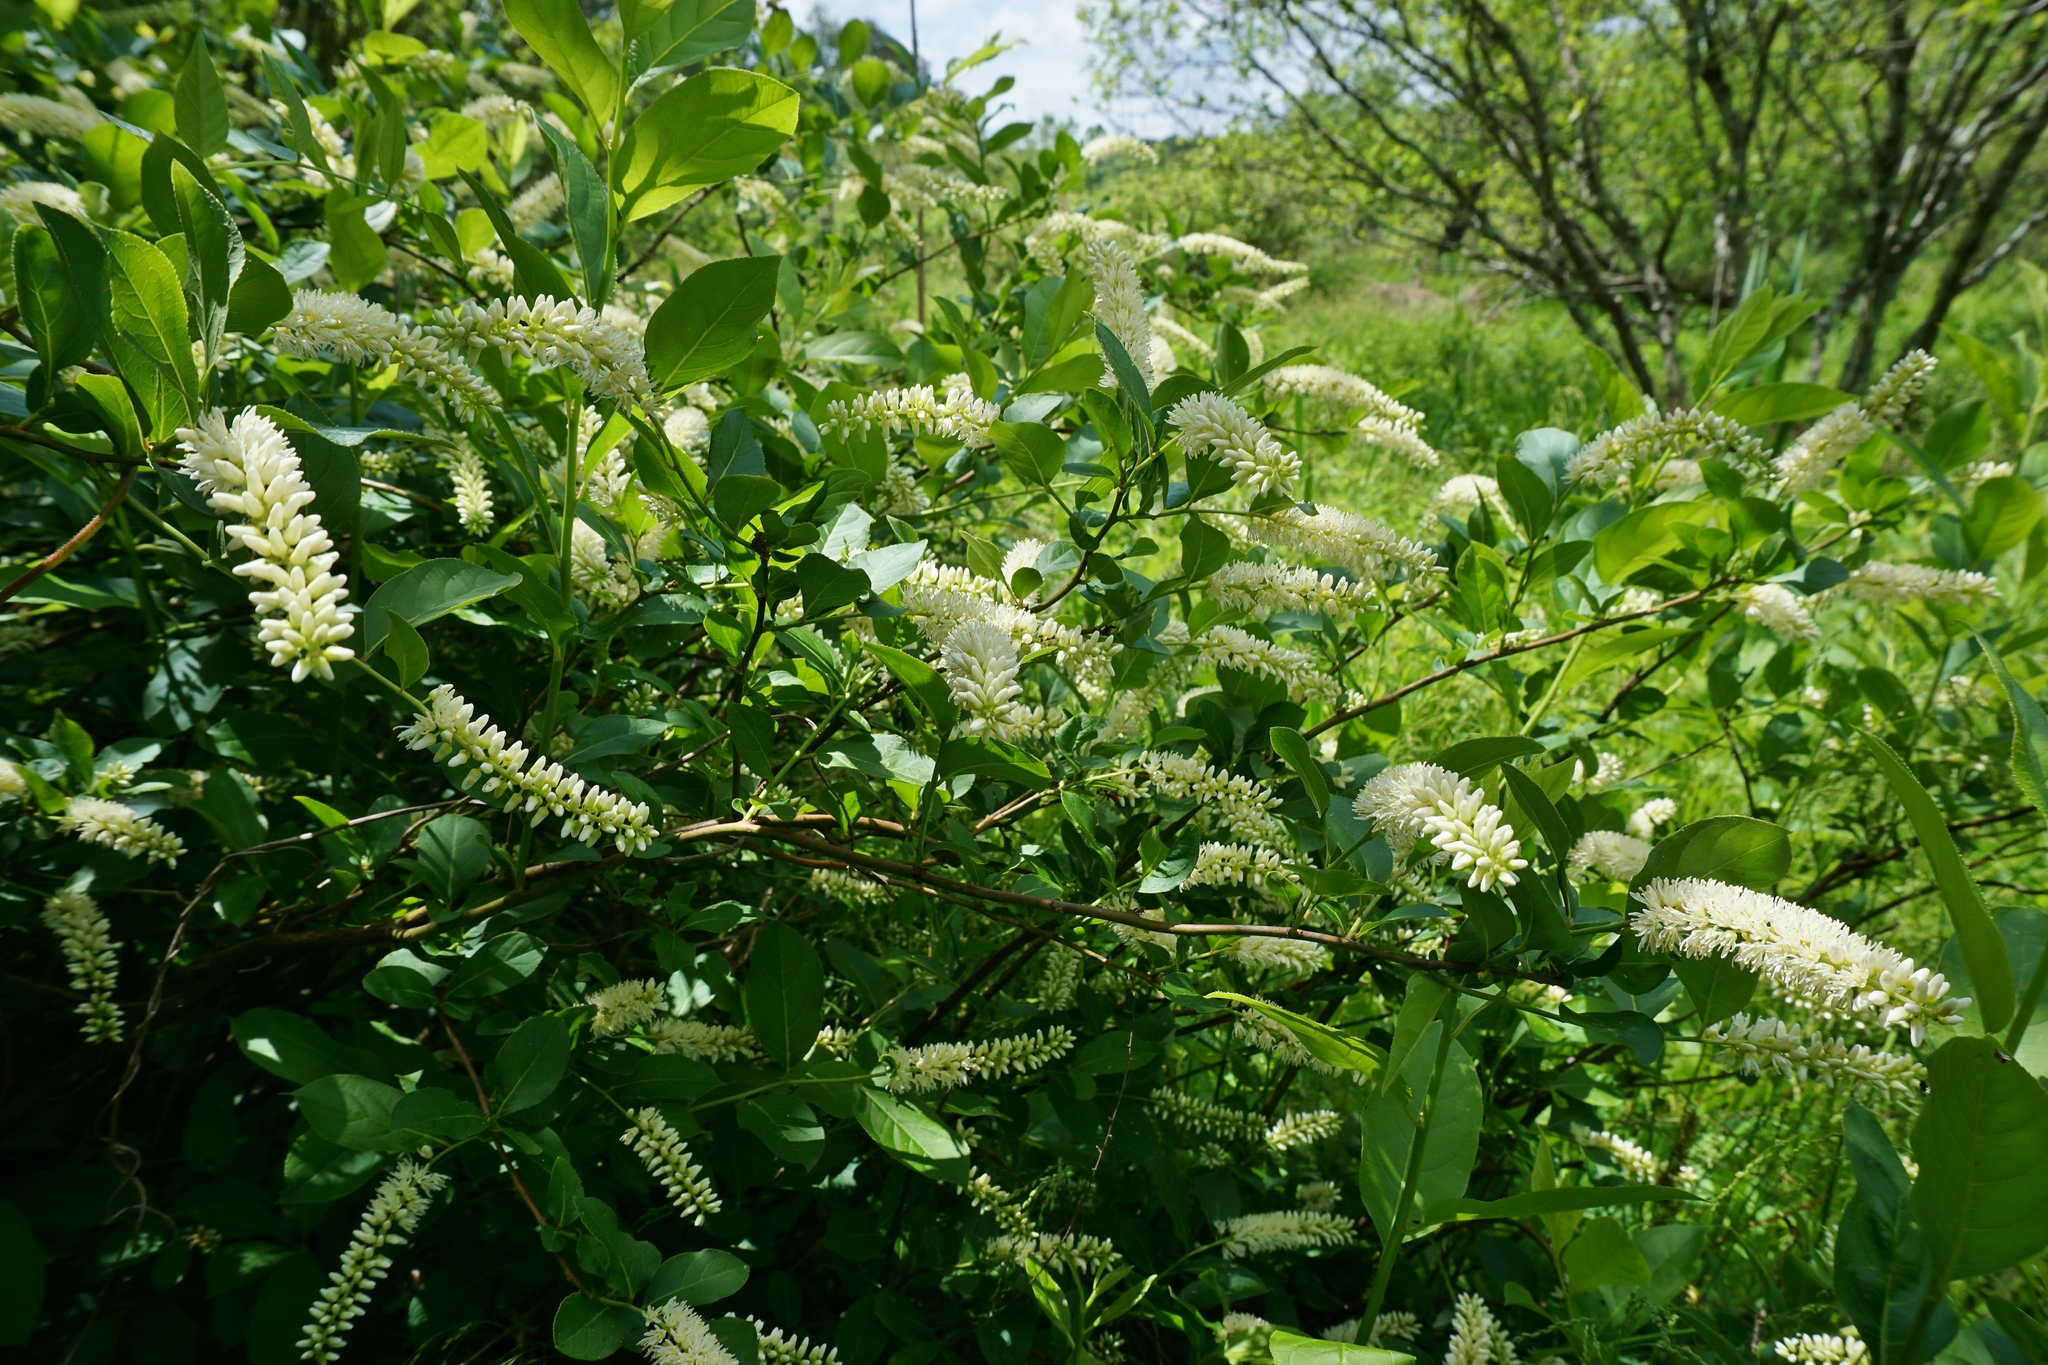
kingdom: Plantae
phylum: Tracheophyta
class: Magnoliopsida
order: Saxifragales
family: Iteaceae
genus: Itea
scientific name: Itea virginica
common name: Sweetspire
